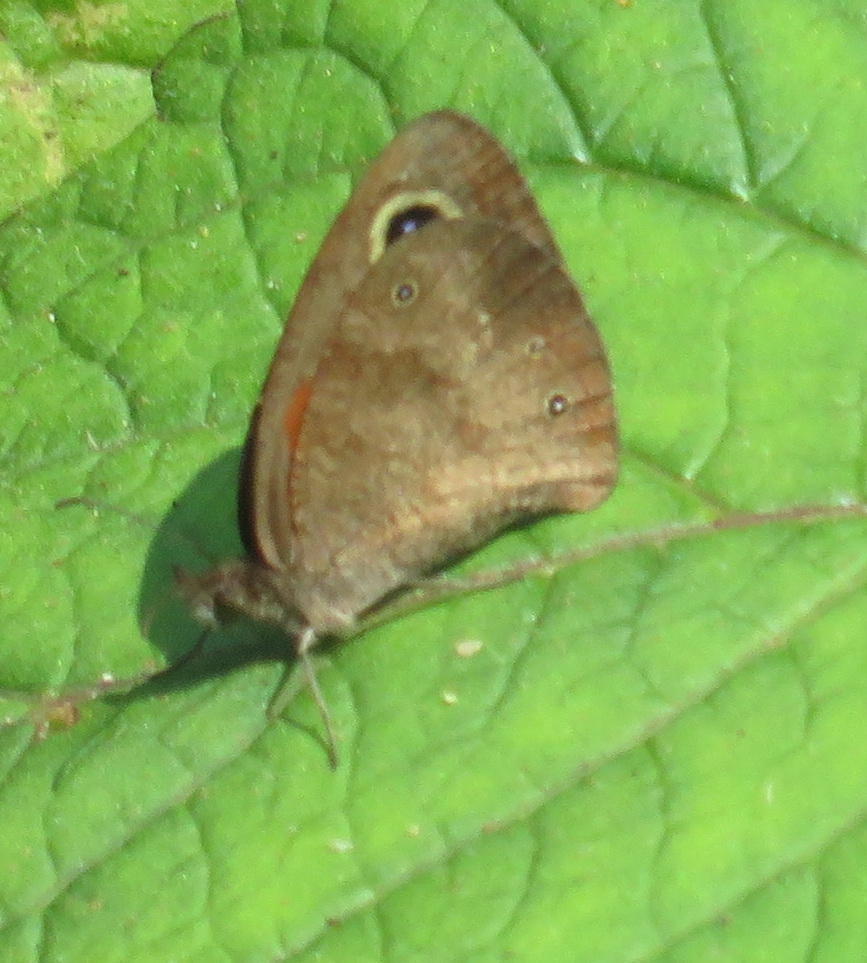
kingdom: Animalia
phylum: Arthropoda
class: Insecta
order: Lepidoptera
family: Nymphalidae
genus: Cassionympha
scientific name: Cassionympha cassius
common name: Rainforest brown
